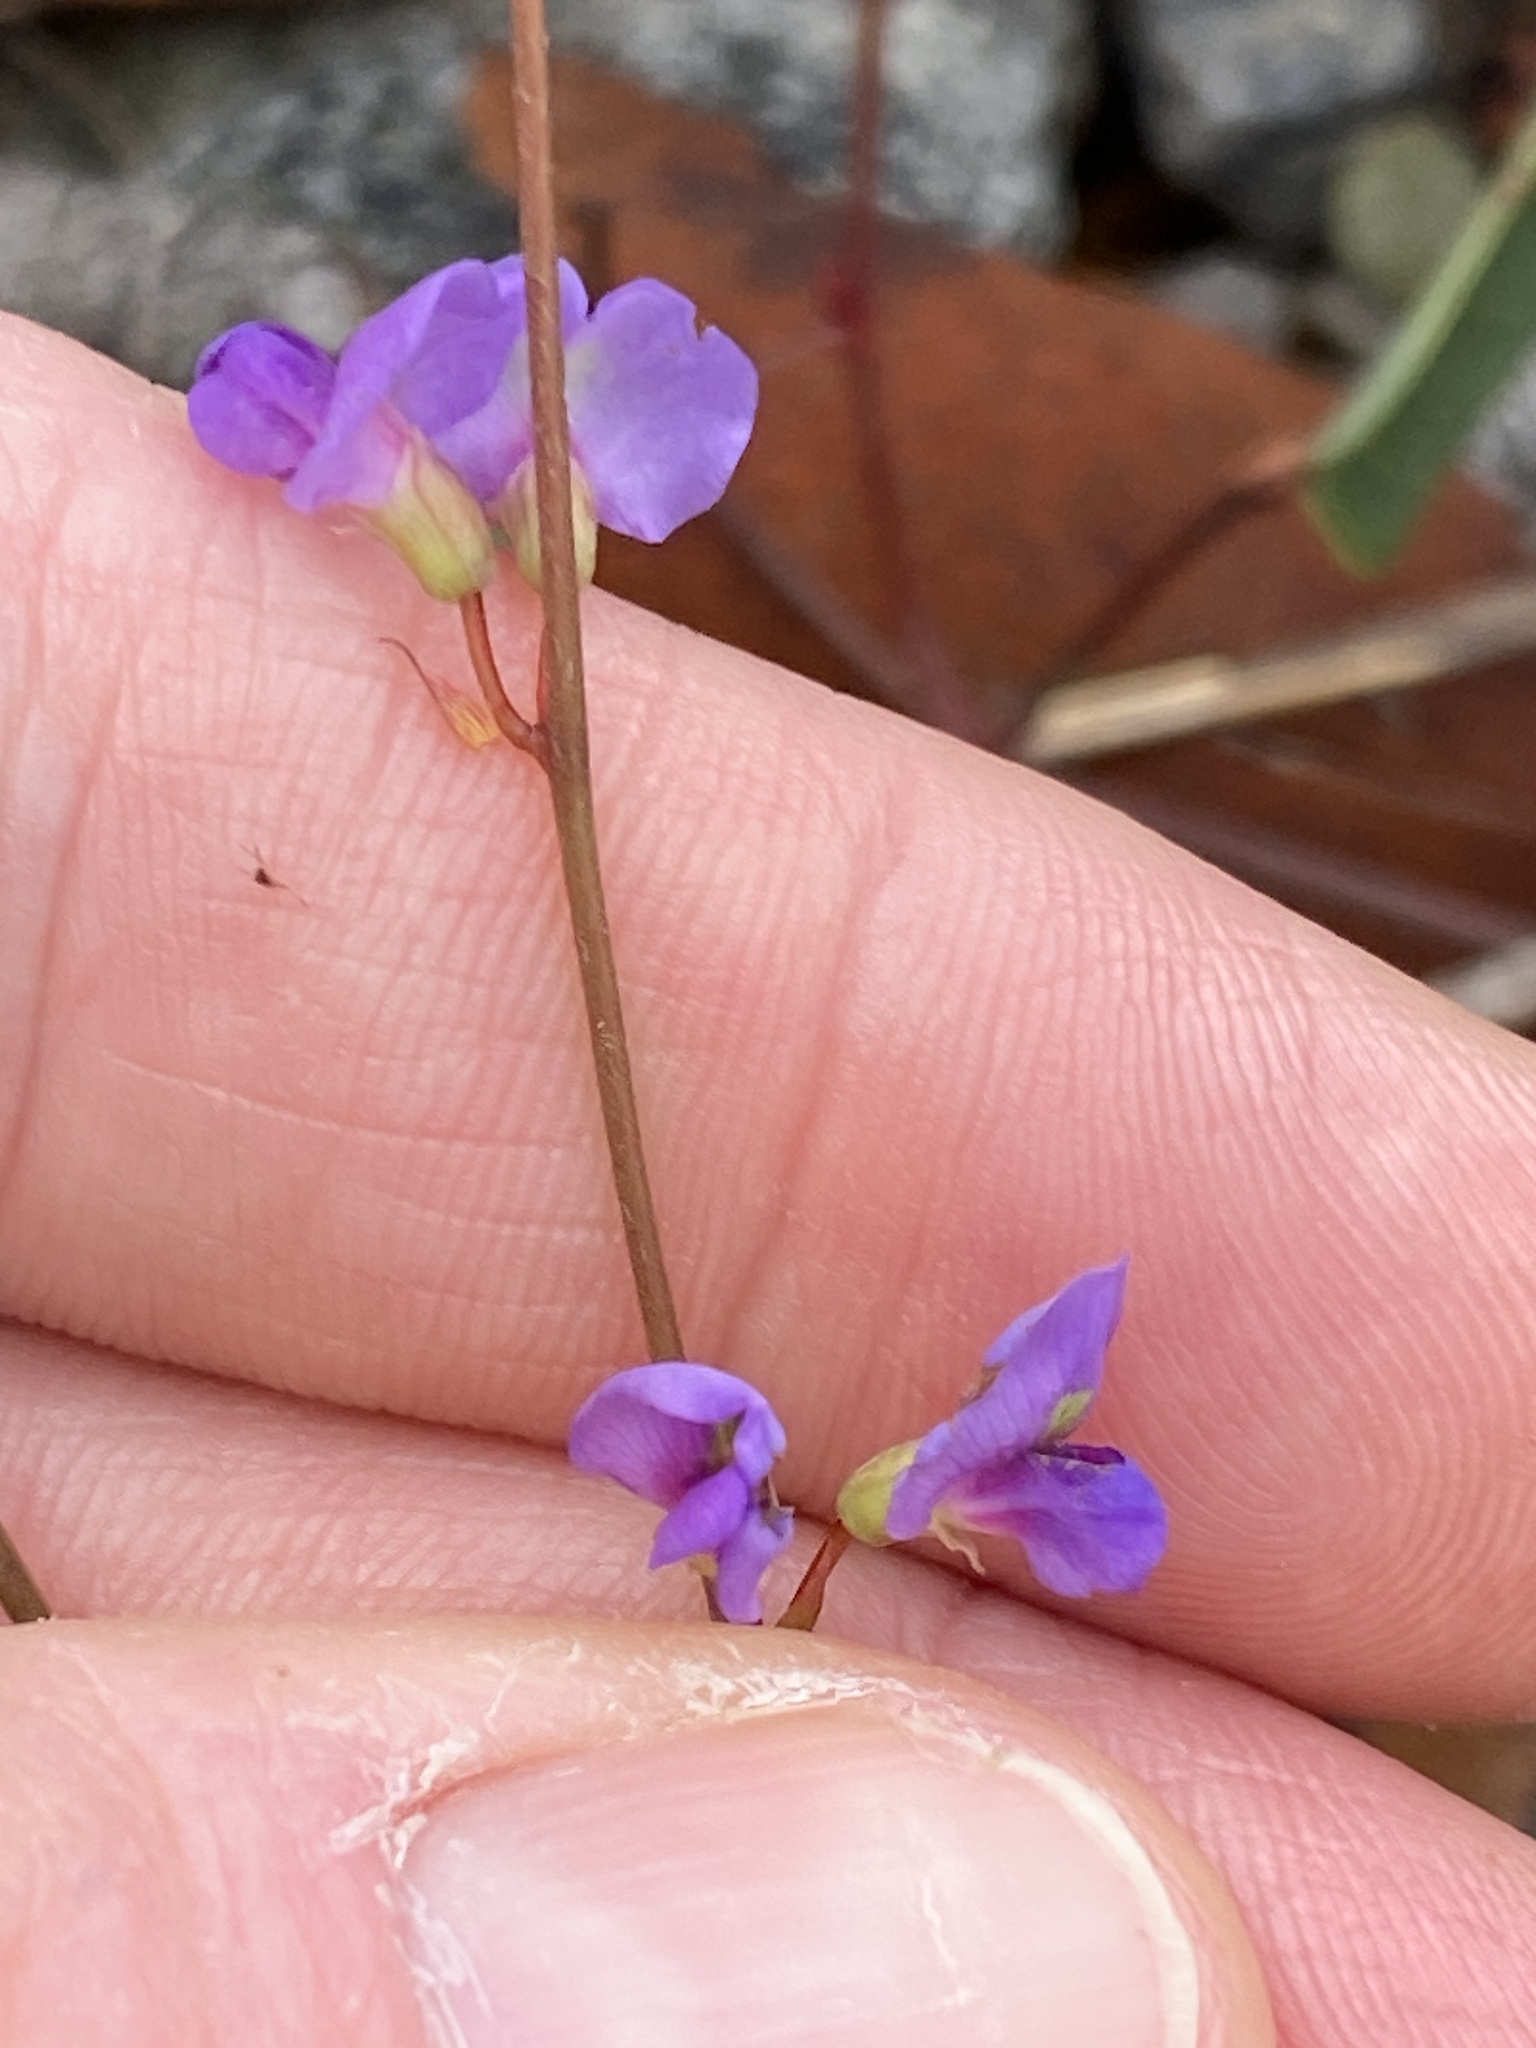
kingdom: Plantae
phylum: Tracheophyta
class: Magnoliopsida
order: Fabales
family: Fabaceae
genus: Hardenbergia
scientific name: Hardenbergia violacea
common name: Coral-pea
